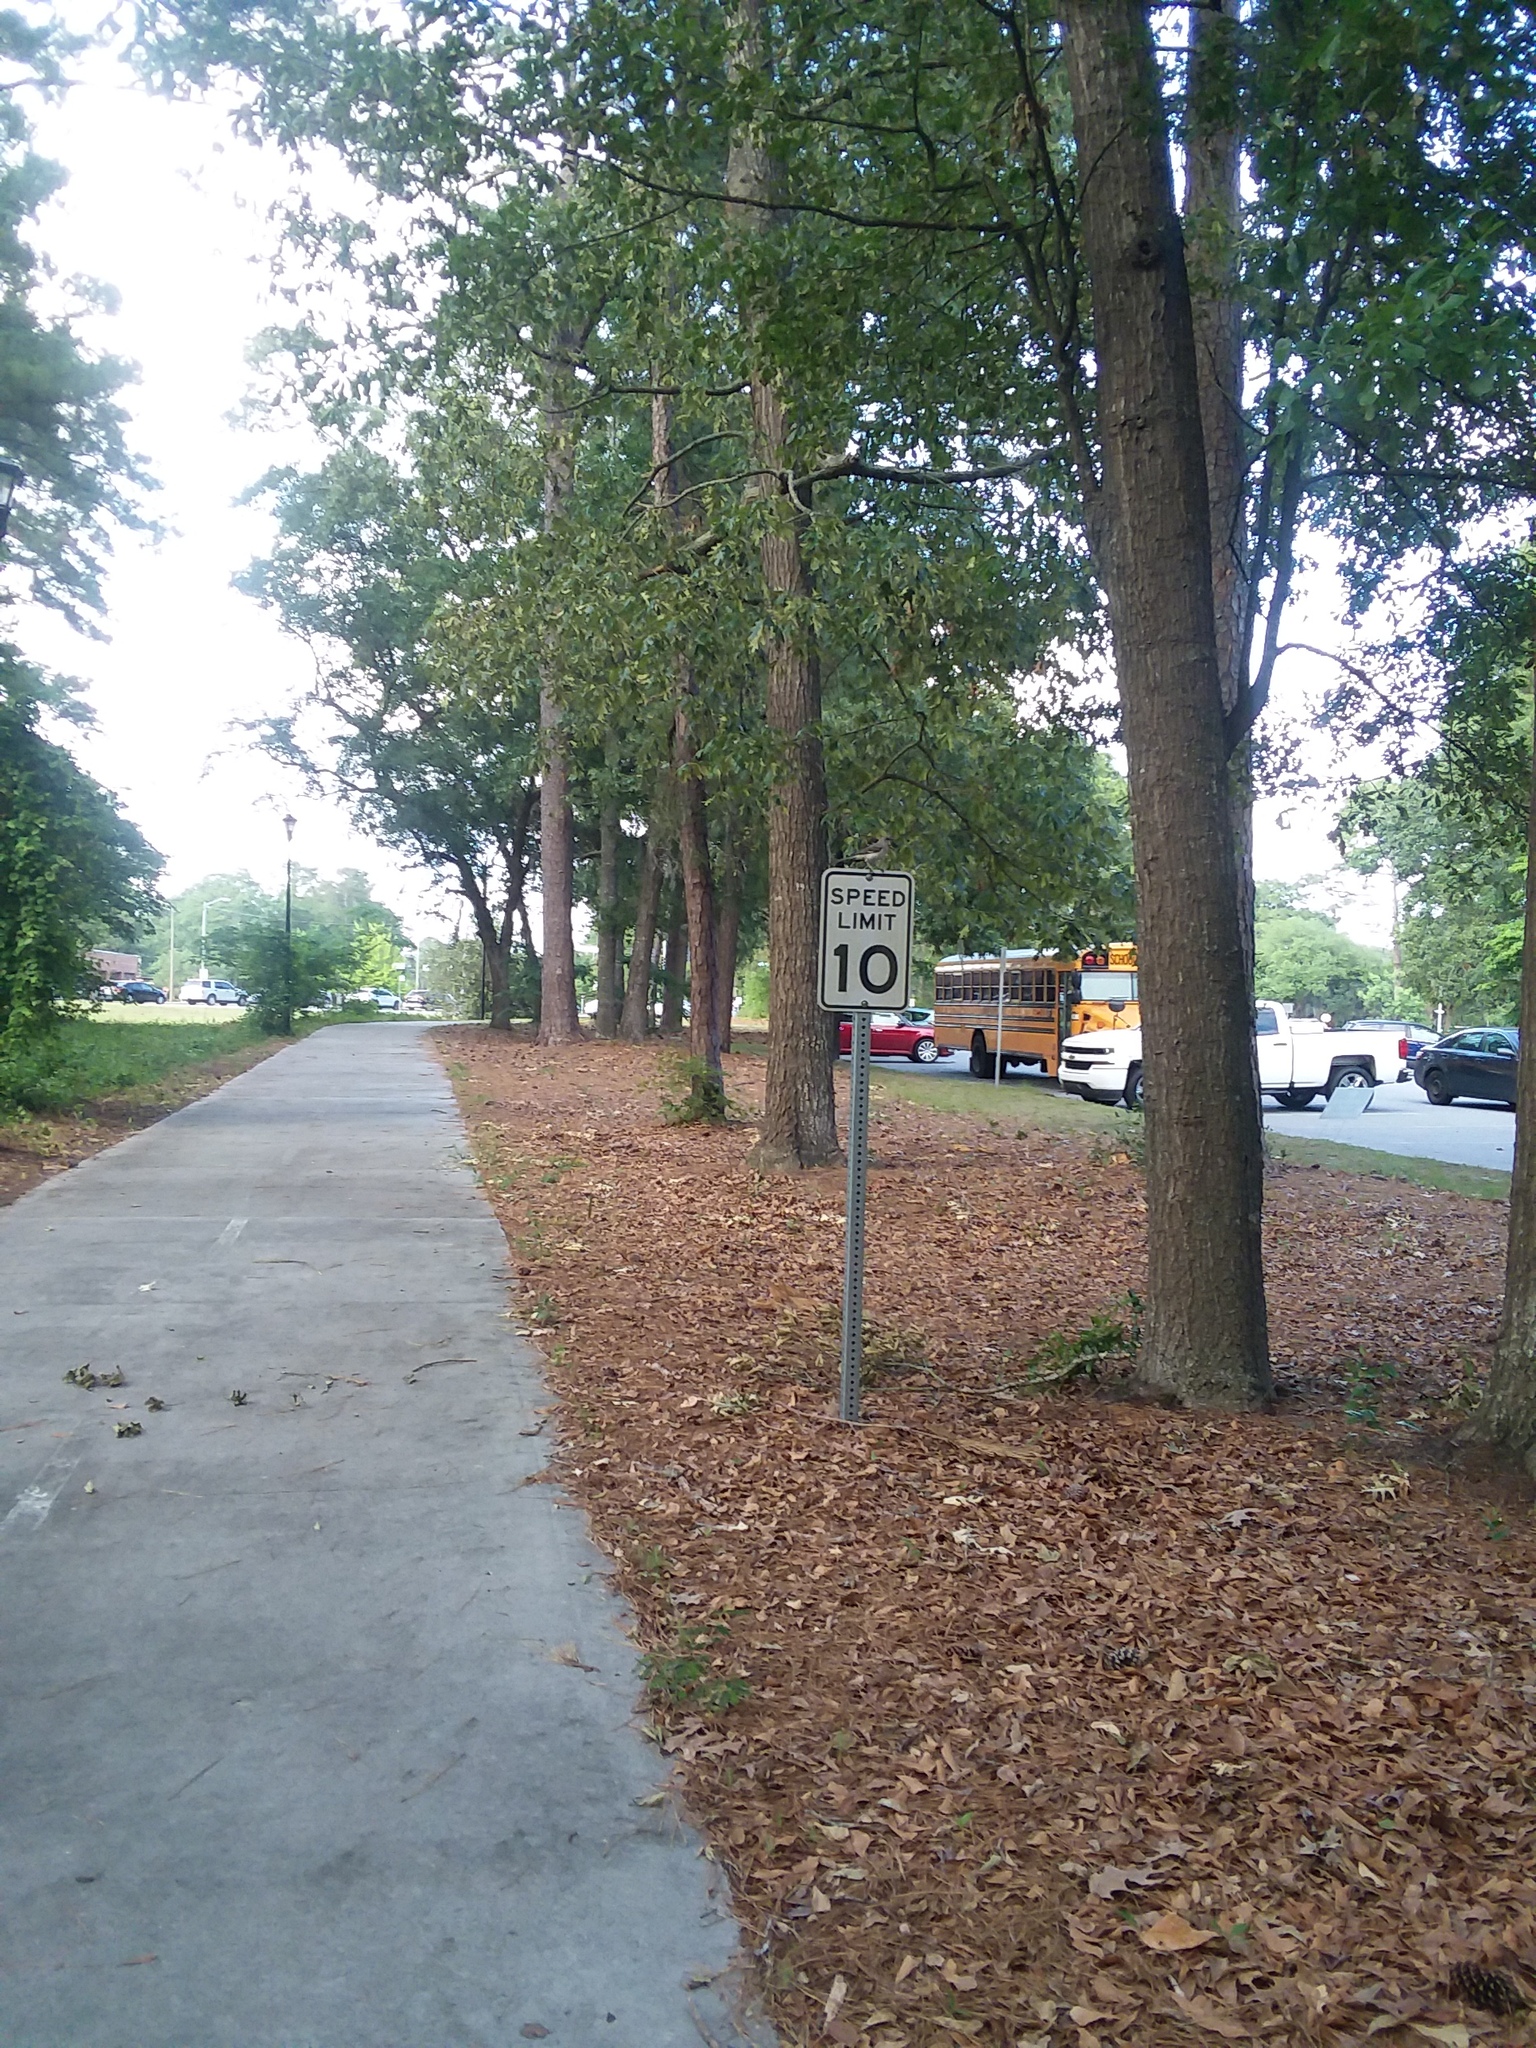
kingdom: Animalia
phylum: Chordata
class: Aves
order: Passeriformes
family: Mimidae
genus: Mimus
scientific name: Mimus polyglottos
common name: Northern mockingbird
